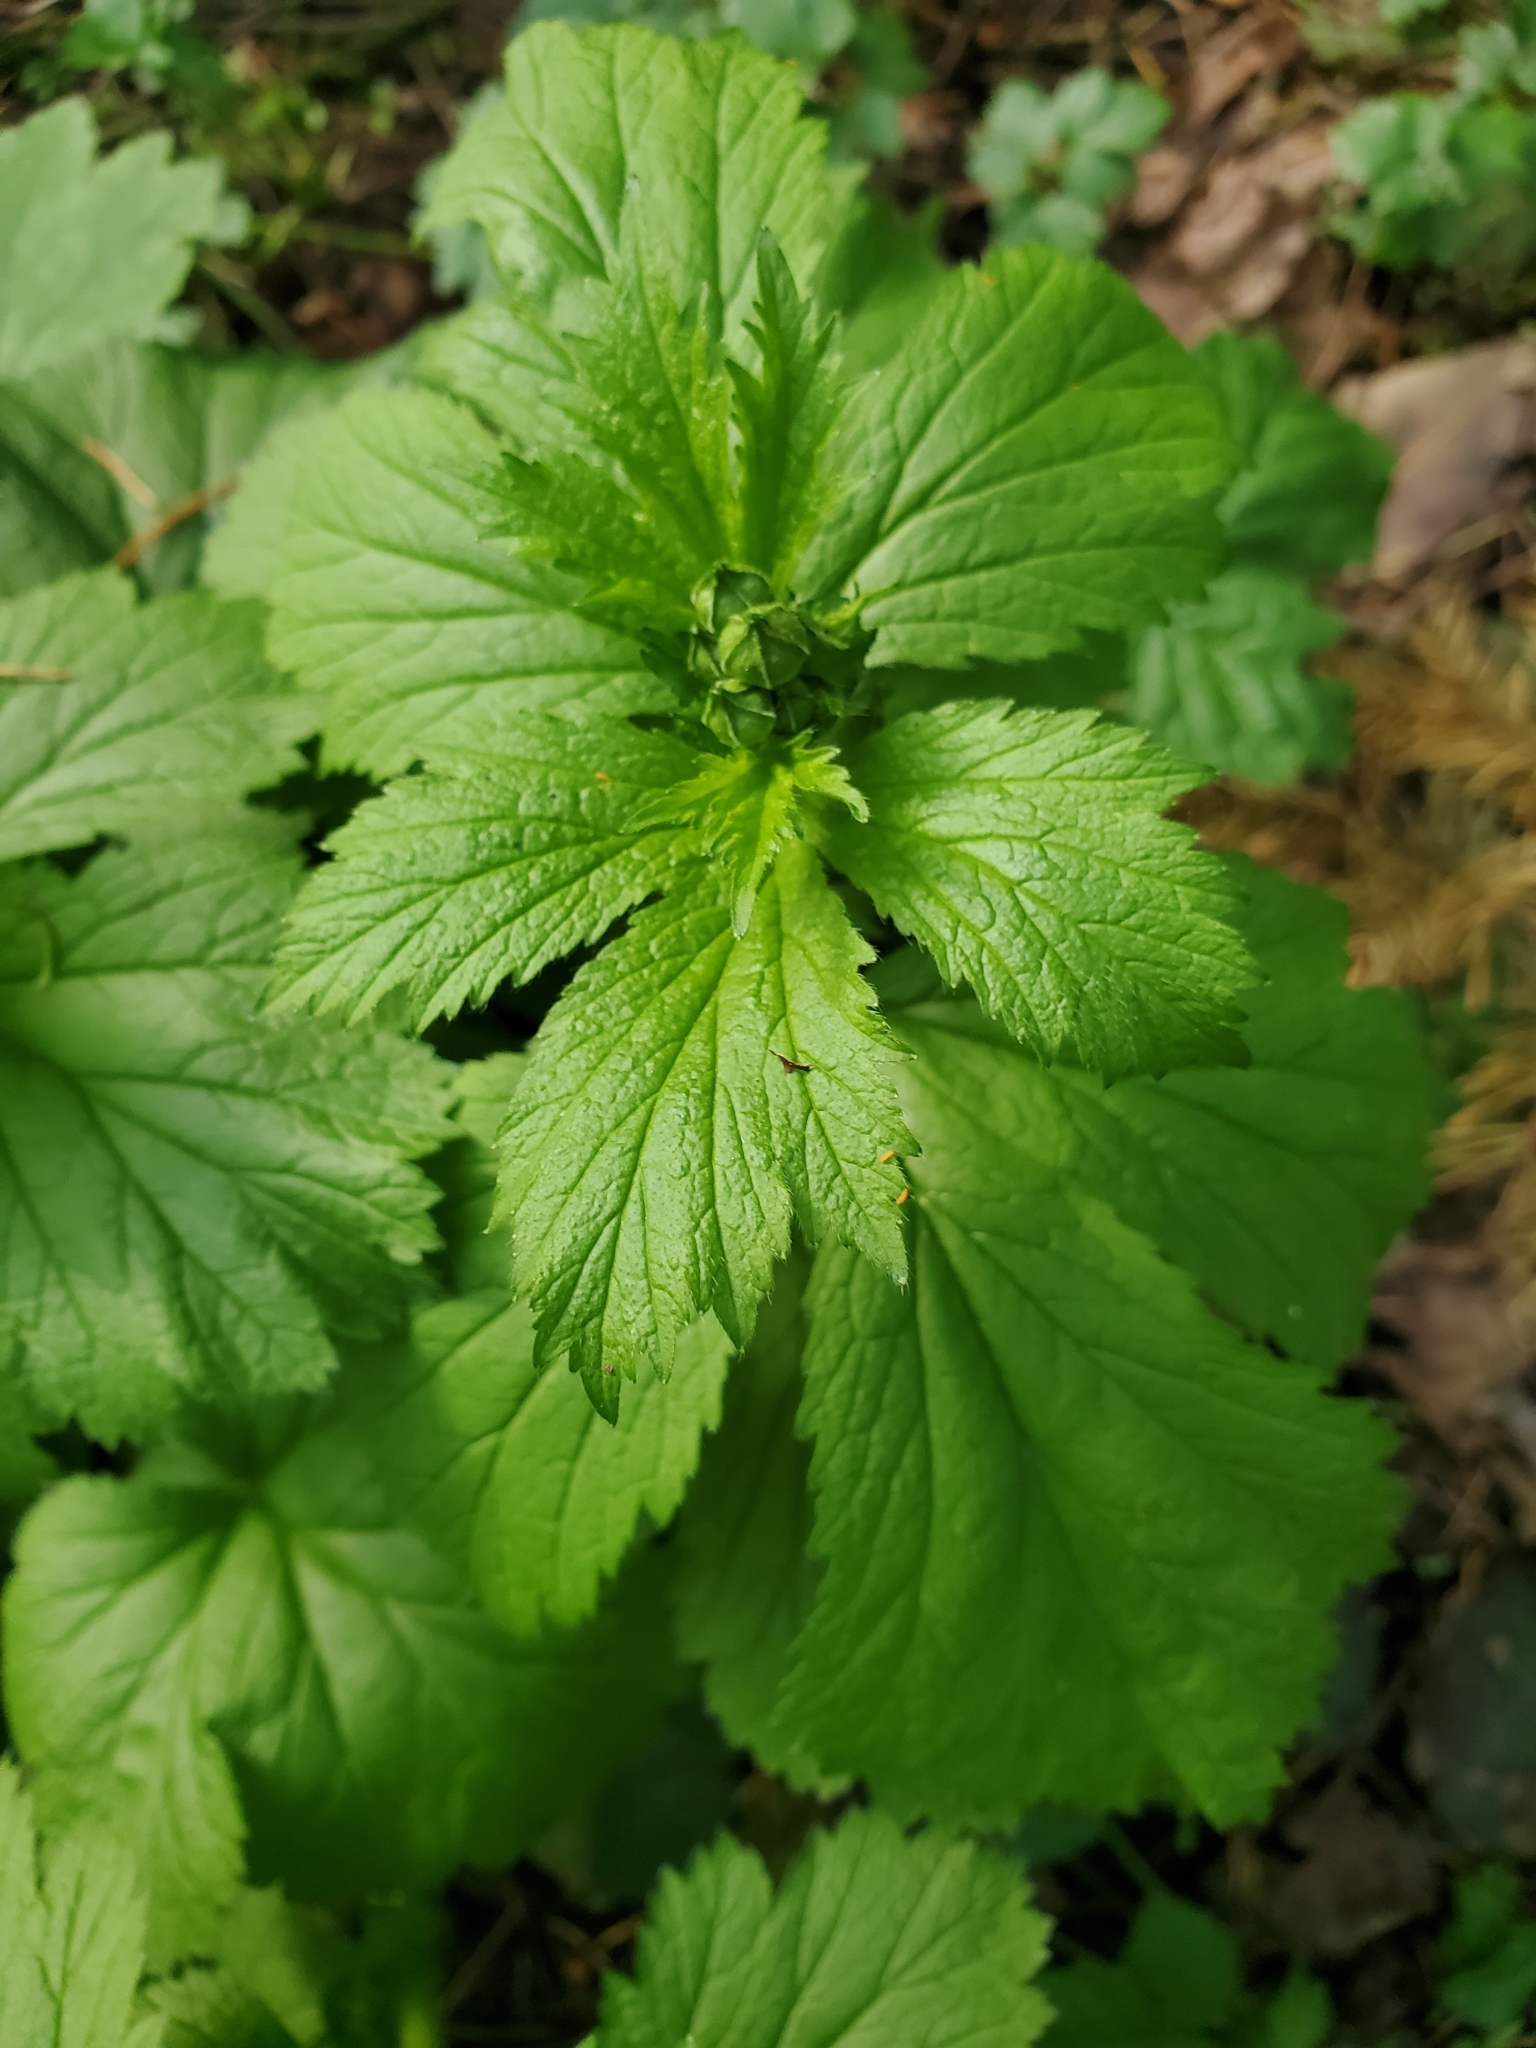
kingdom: Plantae
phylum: Tracheophyta
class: Magnoliopsida
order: Rosales
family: Rosaceae
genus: Geum
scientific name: Geum macrophyllum
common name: Large-leaved avens
